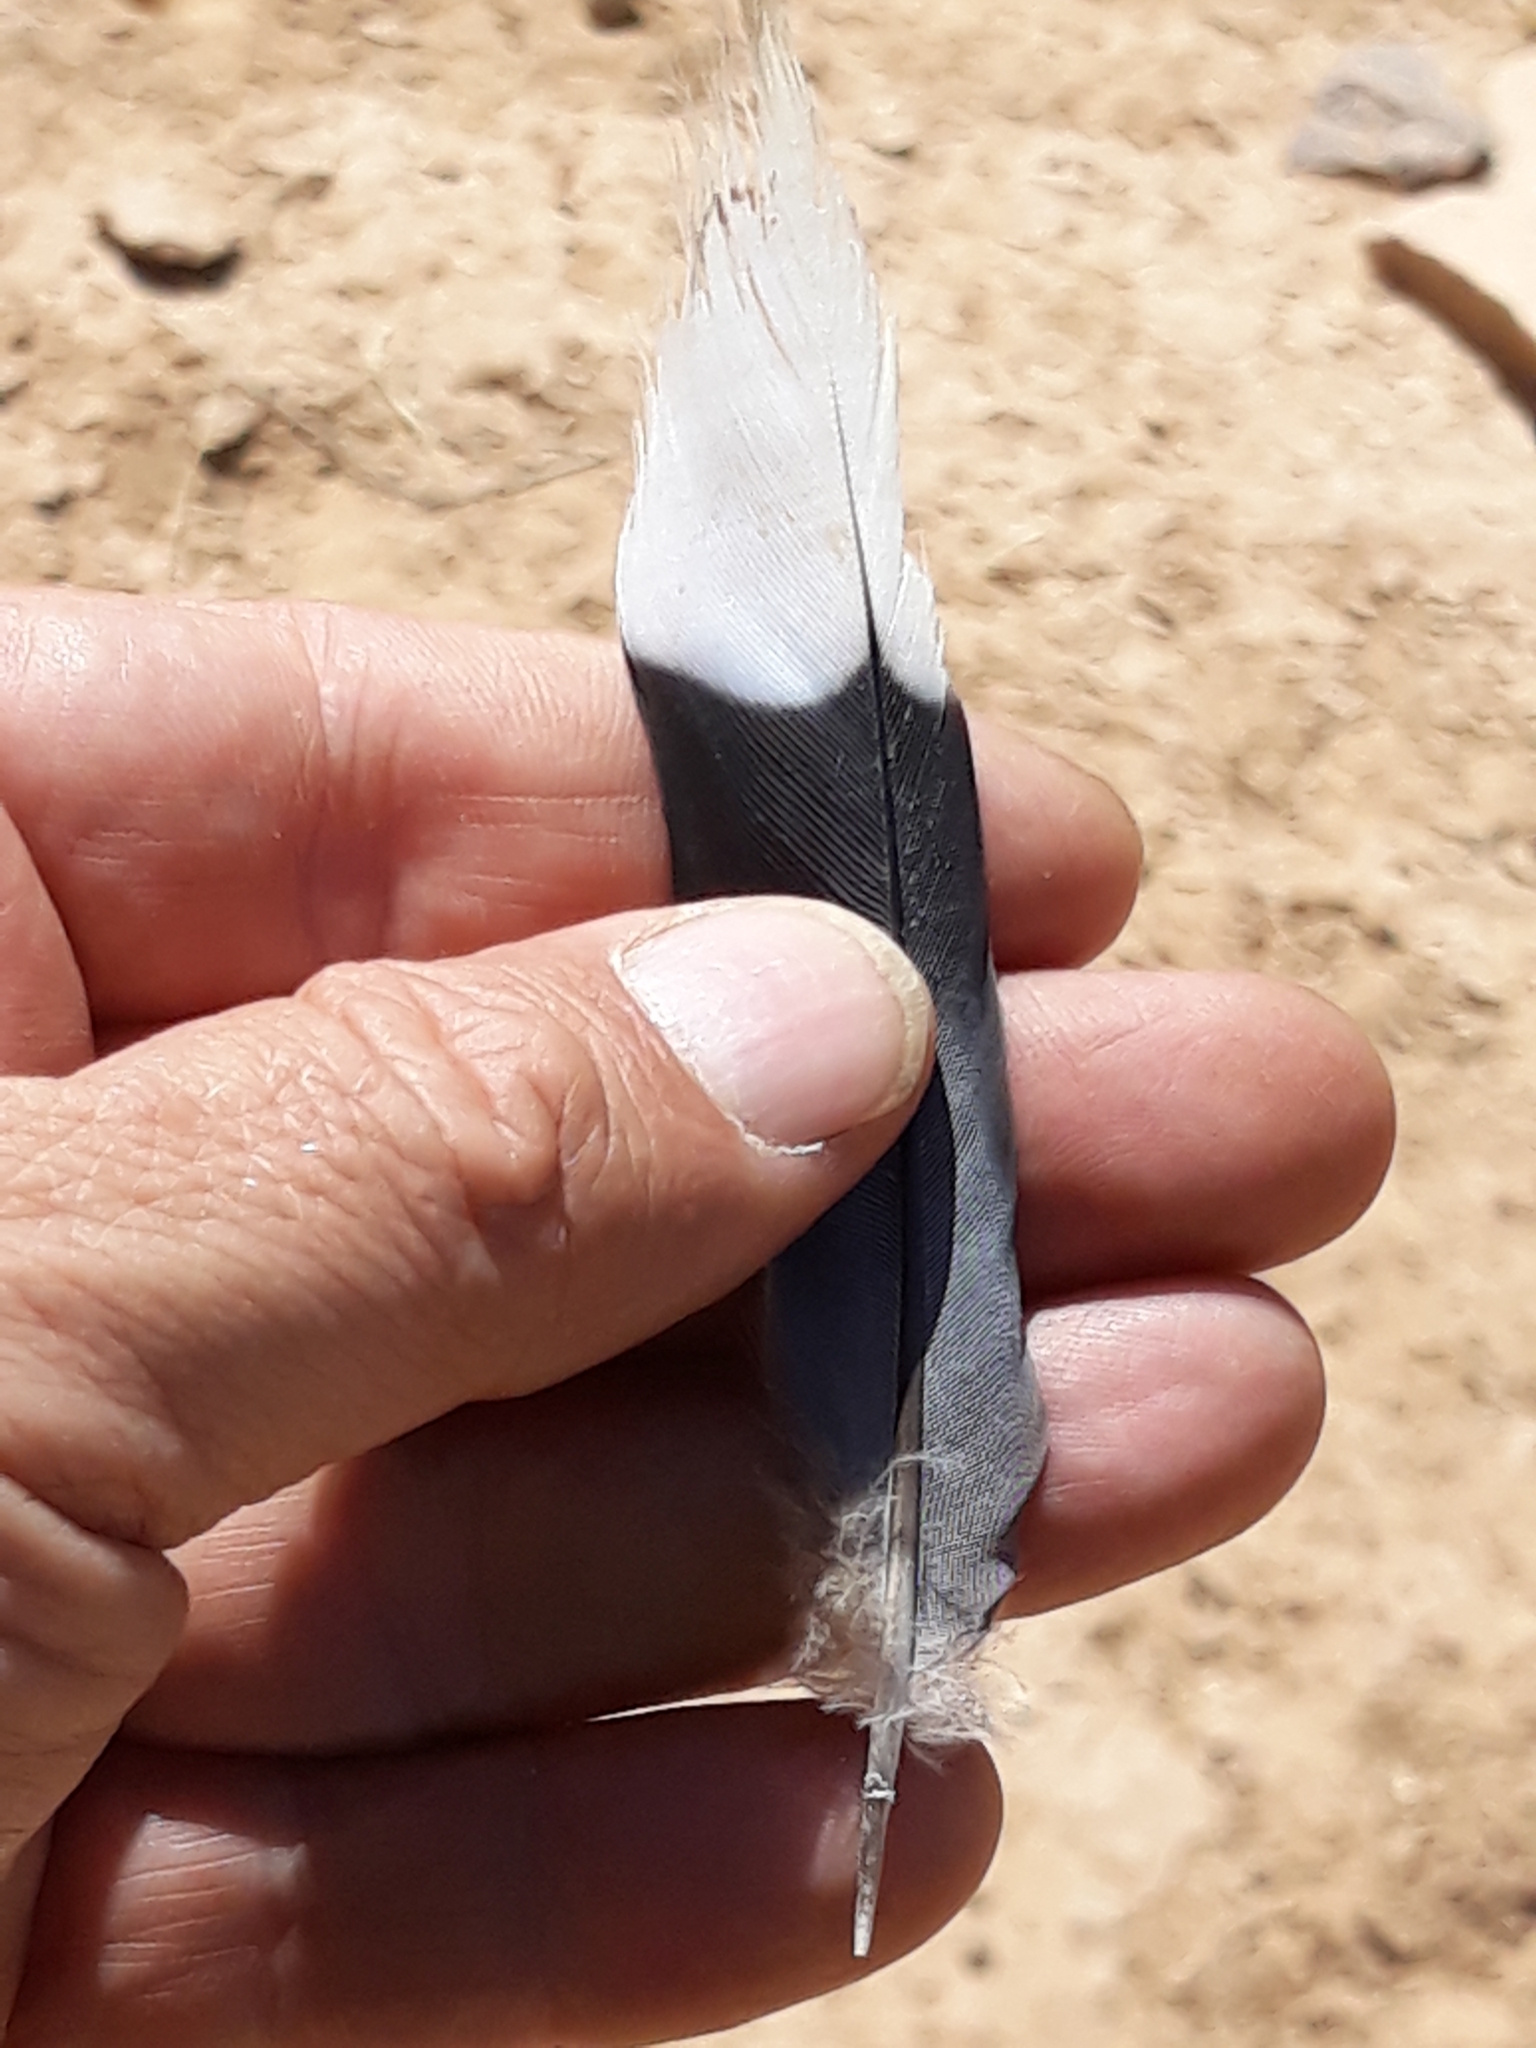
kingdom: Animalia
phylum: Chordata
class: Aves
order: Columbiformes
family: Columbidae
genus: Spilopelia
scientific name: Spilopelia senegalensis
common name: Laughing dove
